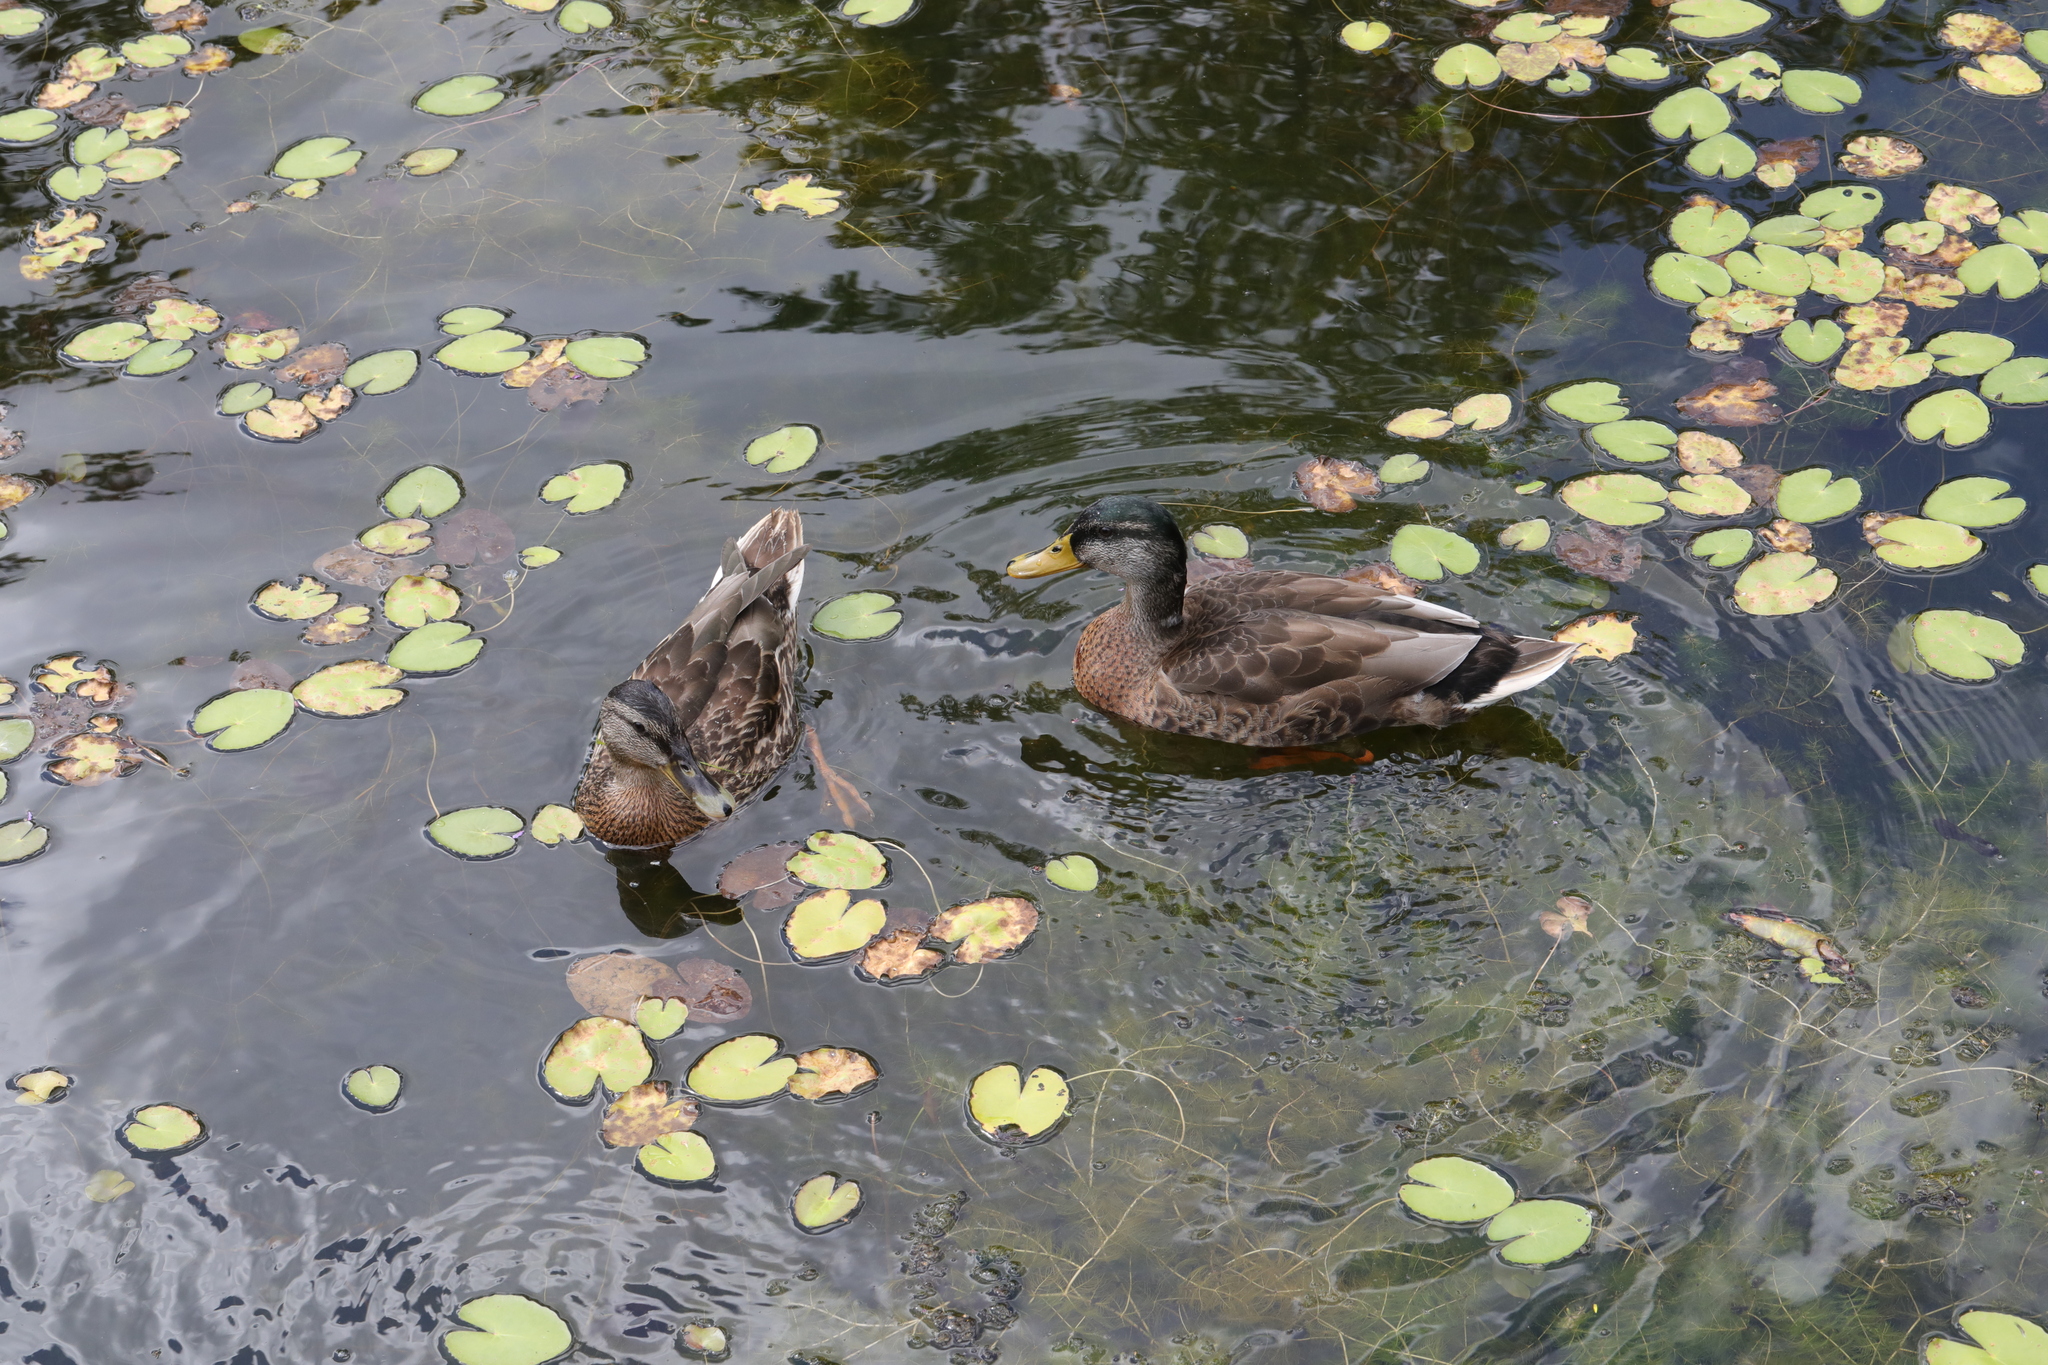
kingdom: Animalia
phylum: Chordata
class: Aves
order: Anseriformes
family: Anatidae
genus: Anas
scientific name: Anas platyrhynchos
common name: Mallard
